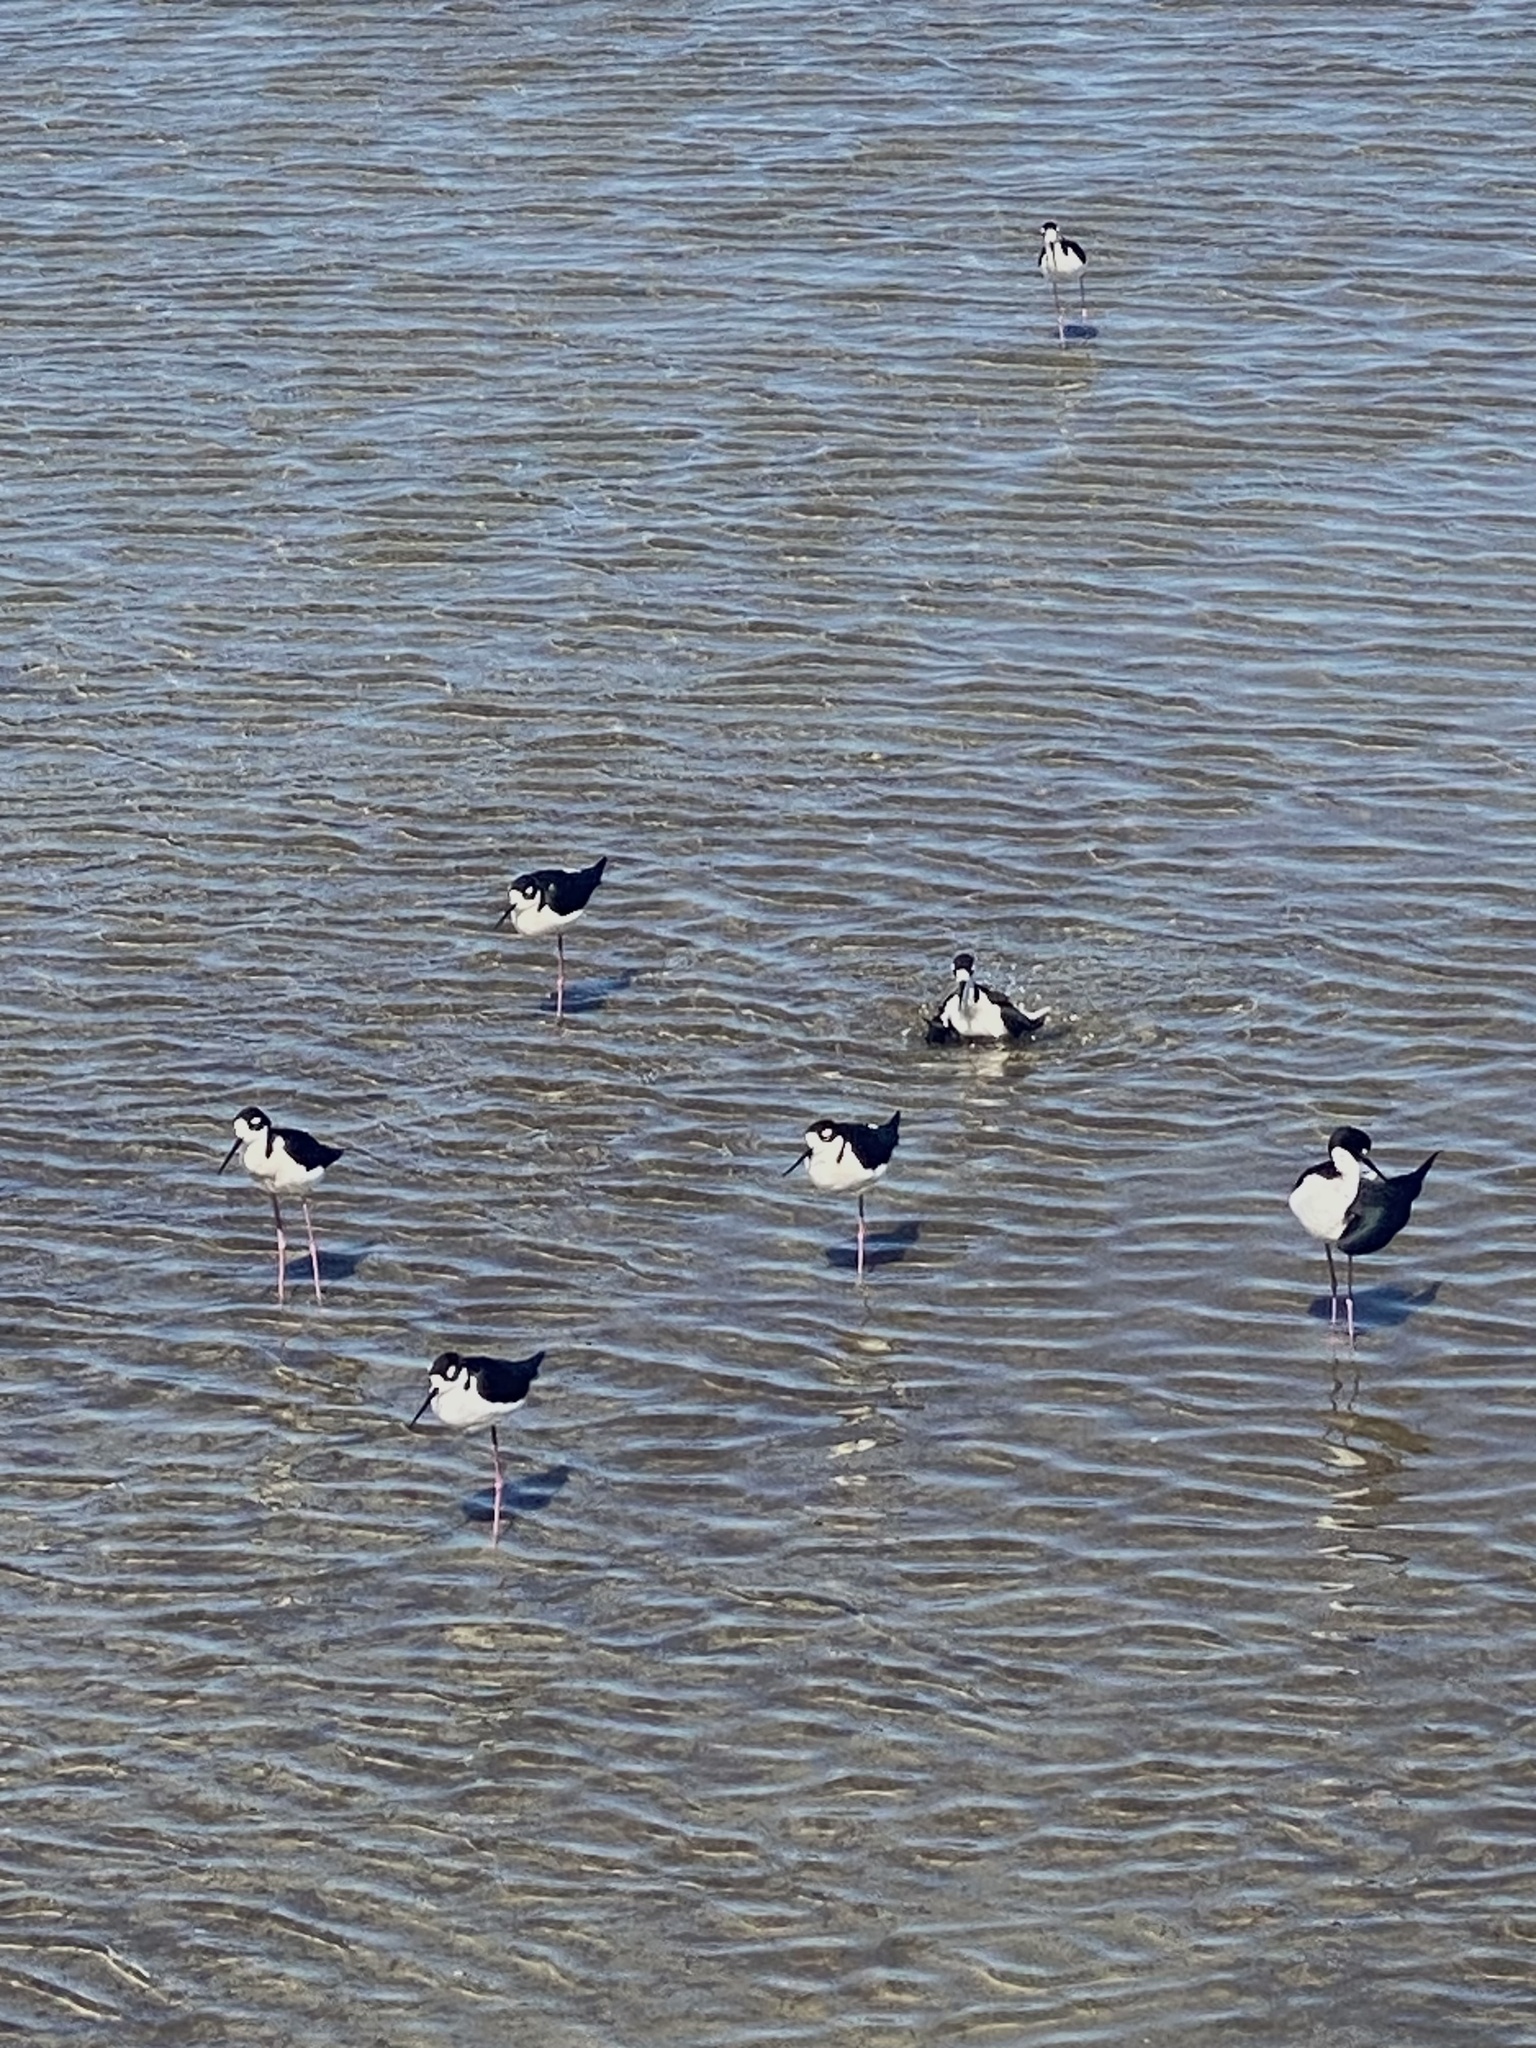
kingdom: Animalia
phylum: Chordata
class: Aves
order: Charadriiformes
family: Recurvirostridae
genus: Himantopus
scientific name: Himantopus mexicanus
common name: Black-necked stilt
